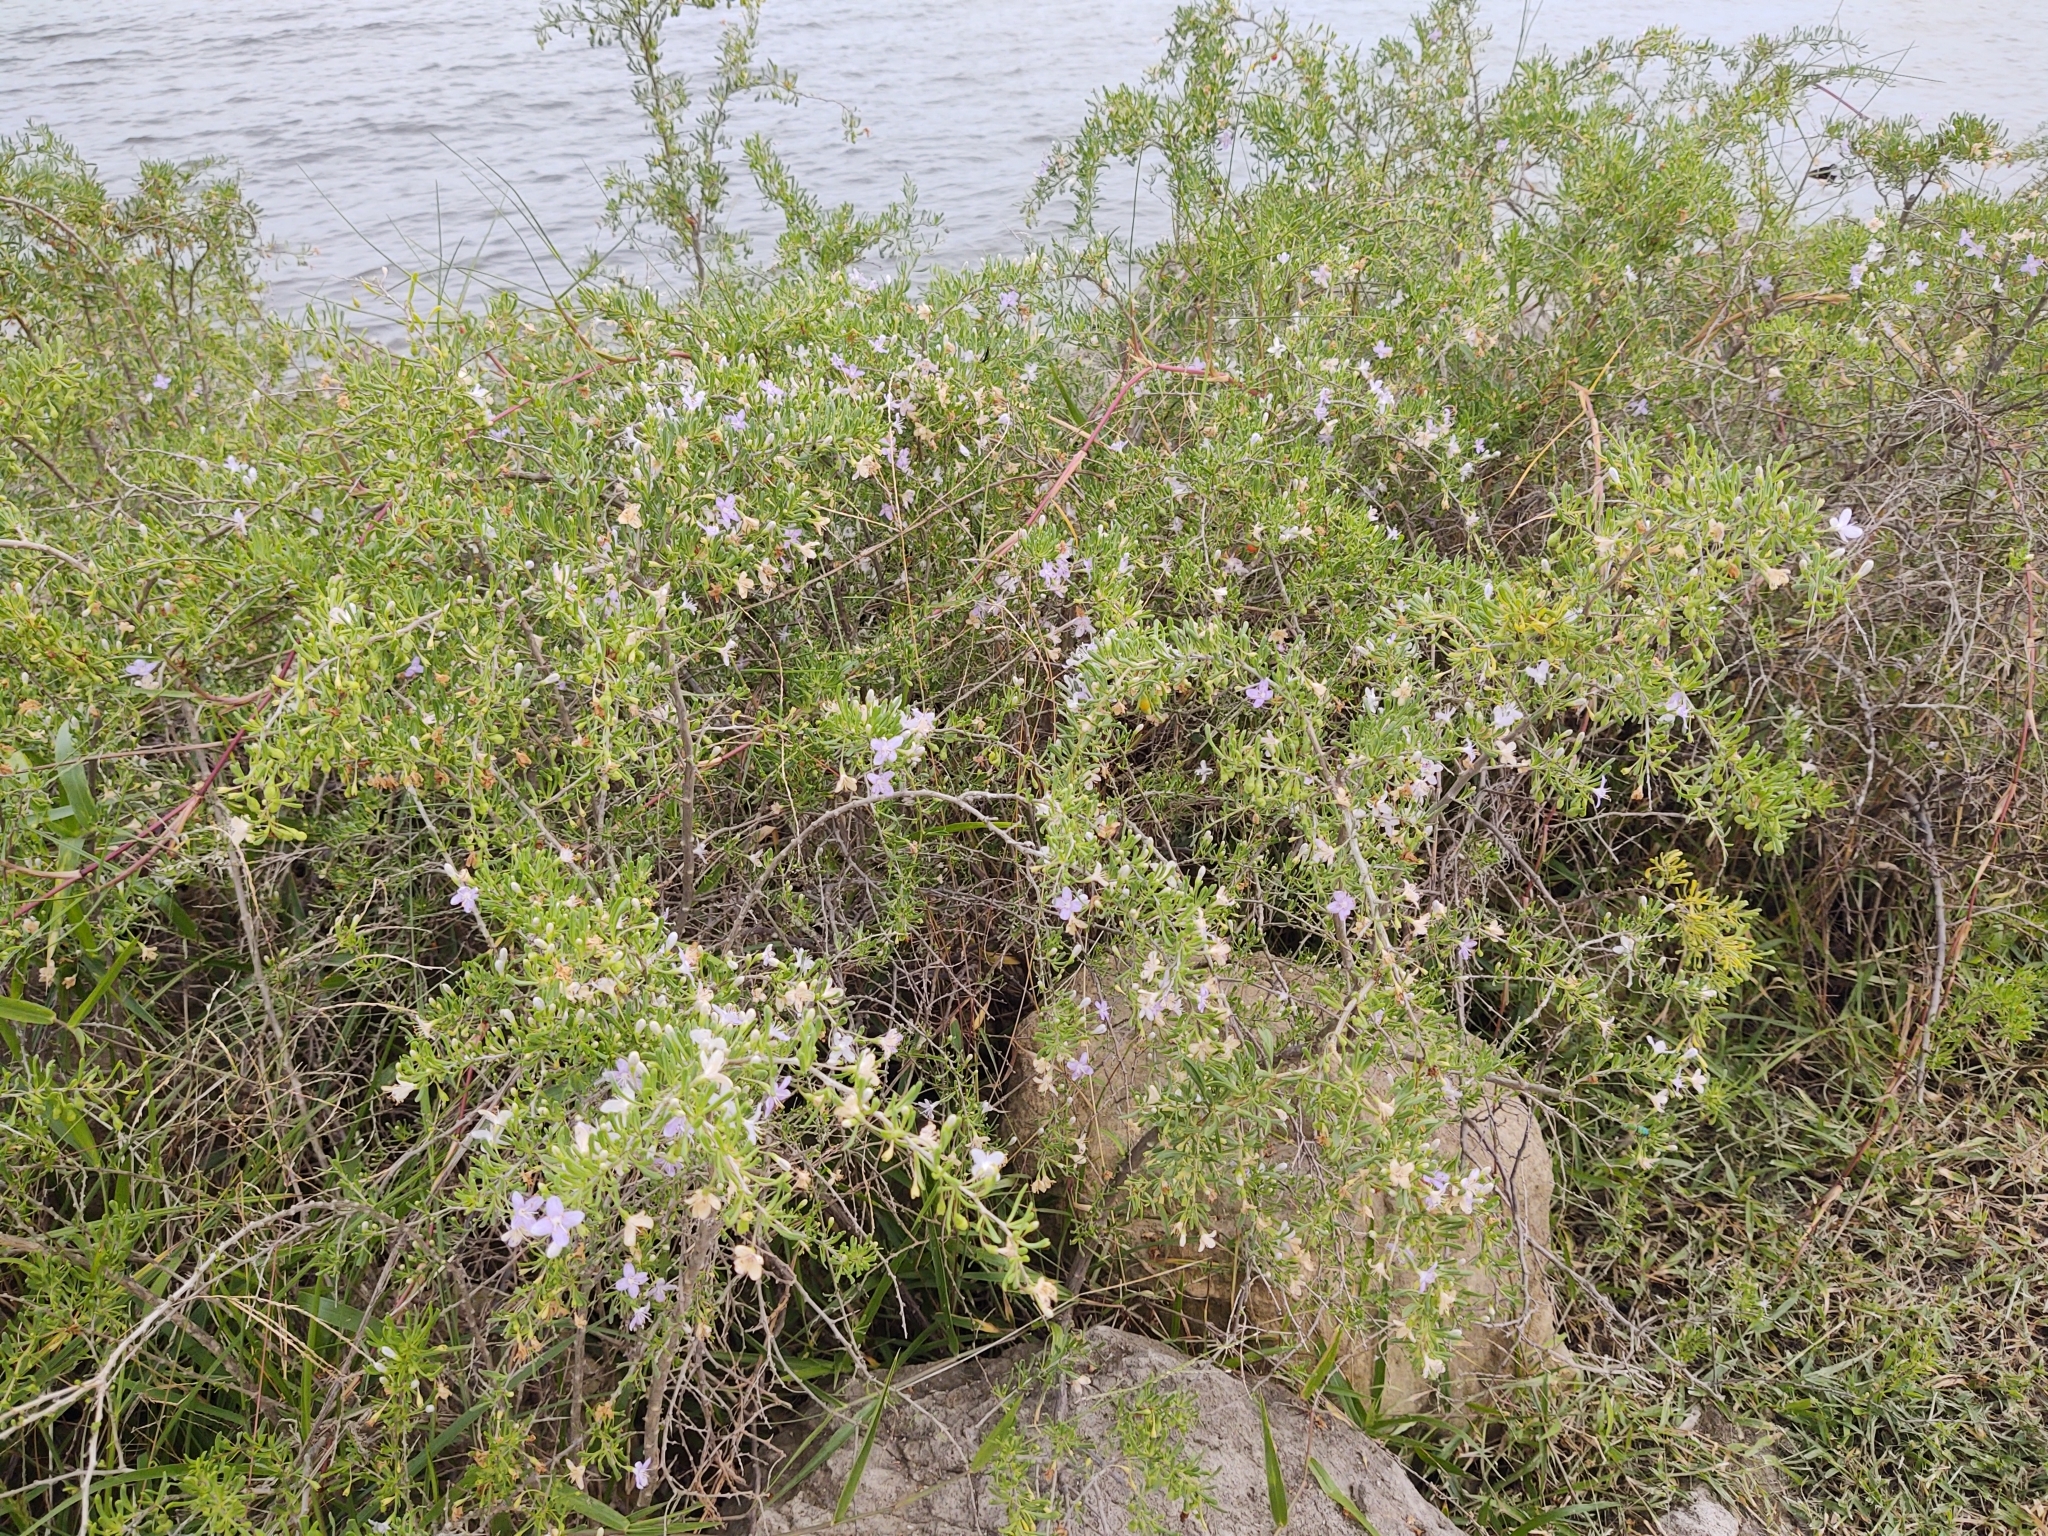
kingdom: Plantae
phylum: Tracheophyta
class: Magnoliopsida
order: Solanales
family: Solanaceae
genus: Lycium
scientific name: Lycium carolinianum
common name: Christmasberry
